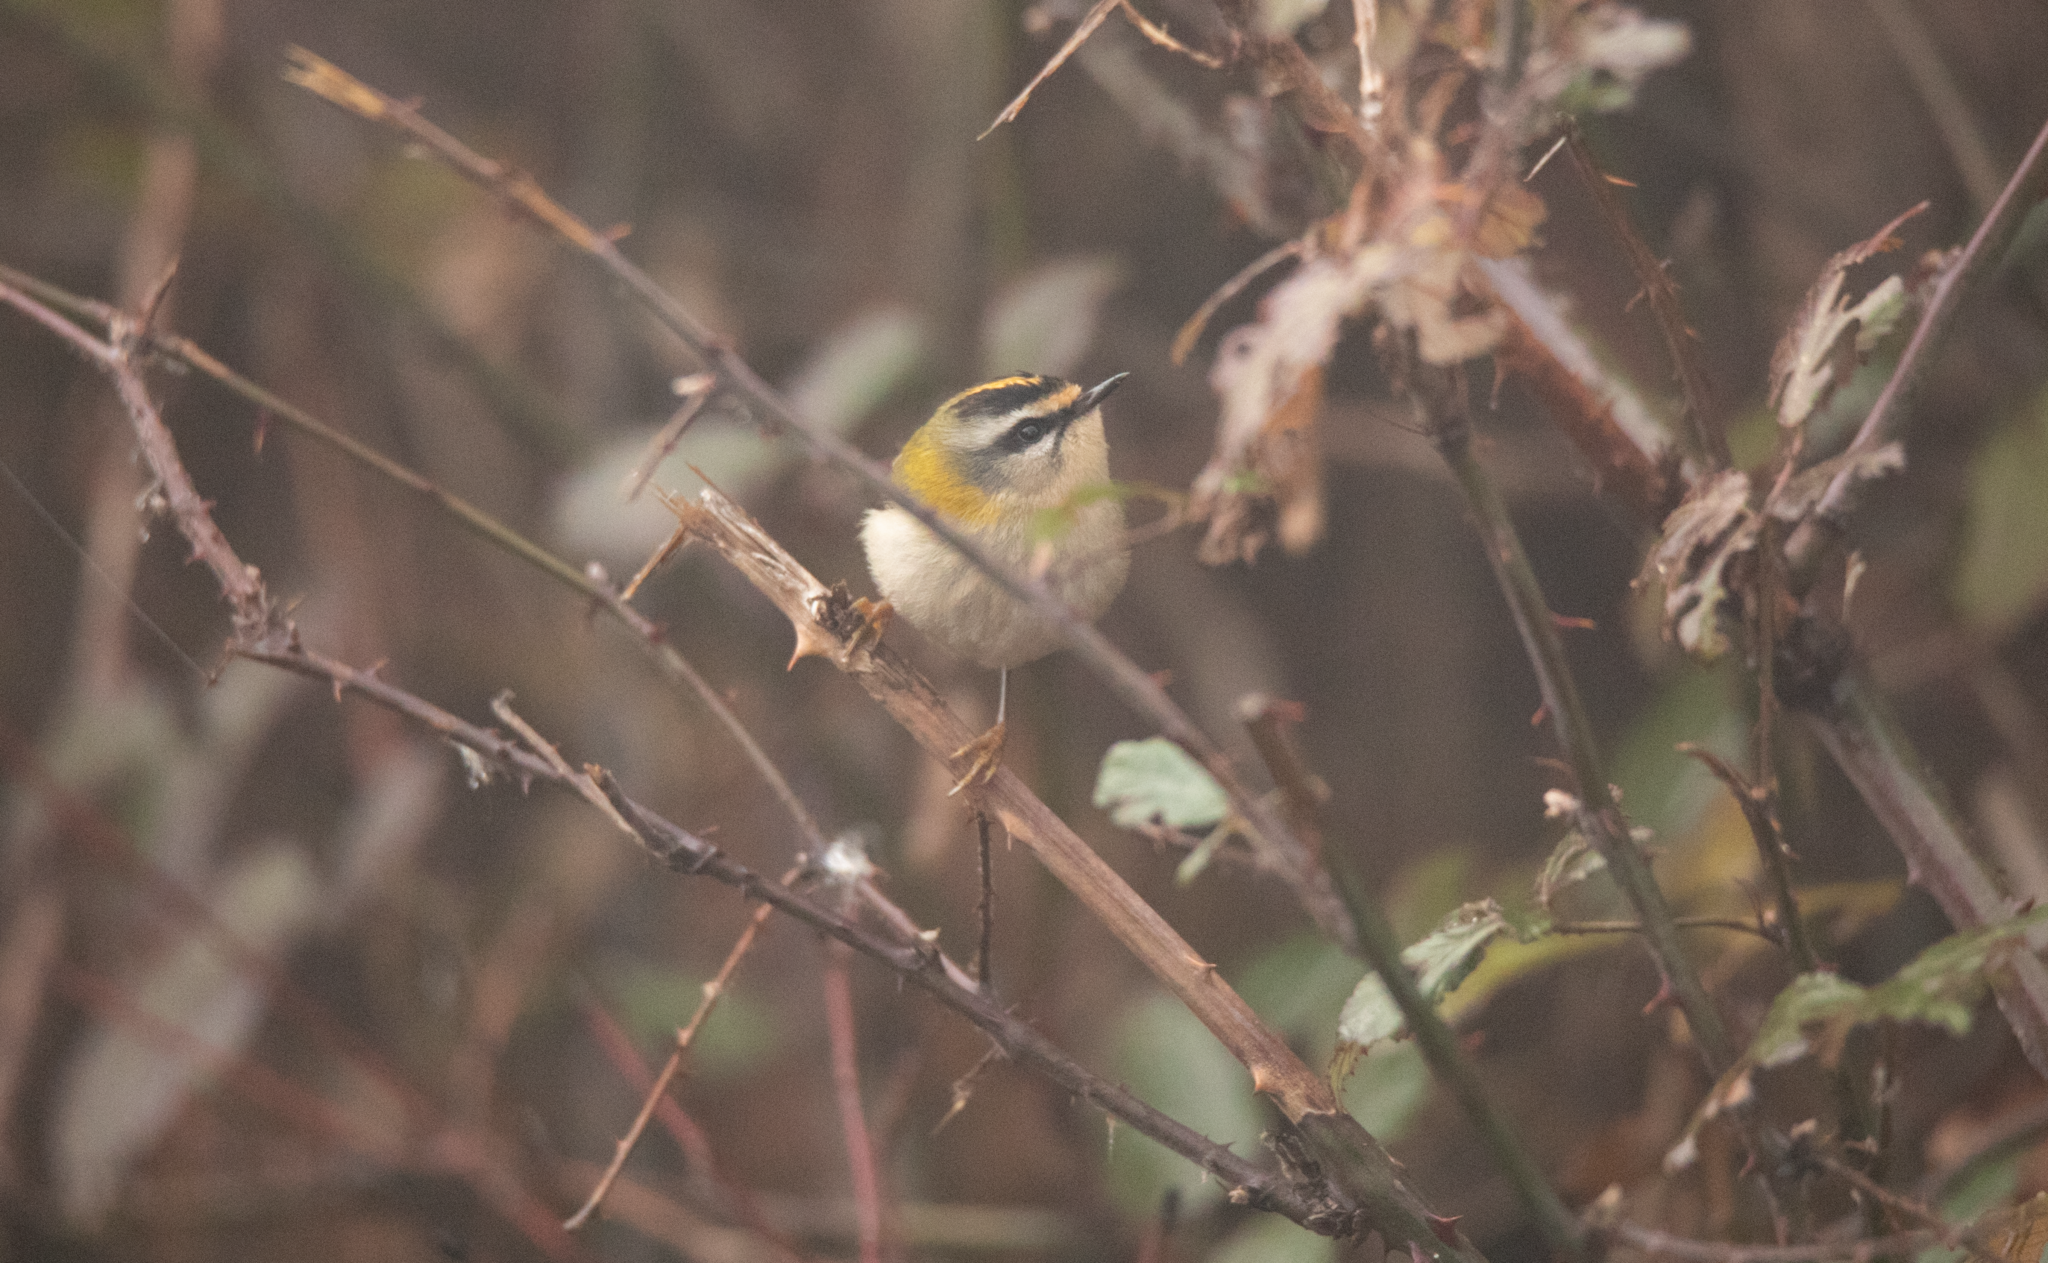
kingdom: Animalia
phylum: Chordata
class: Aves
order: Passeriformes
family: Regulidae
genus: Regulus
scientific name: Regulus ignicapilla
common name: Firecrest
